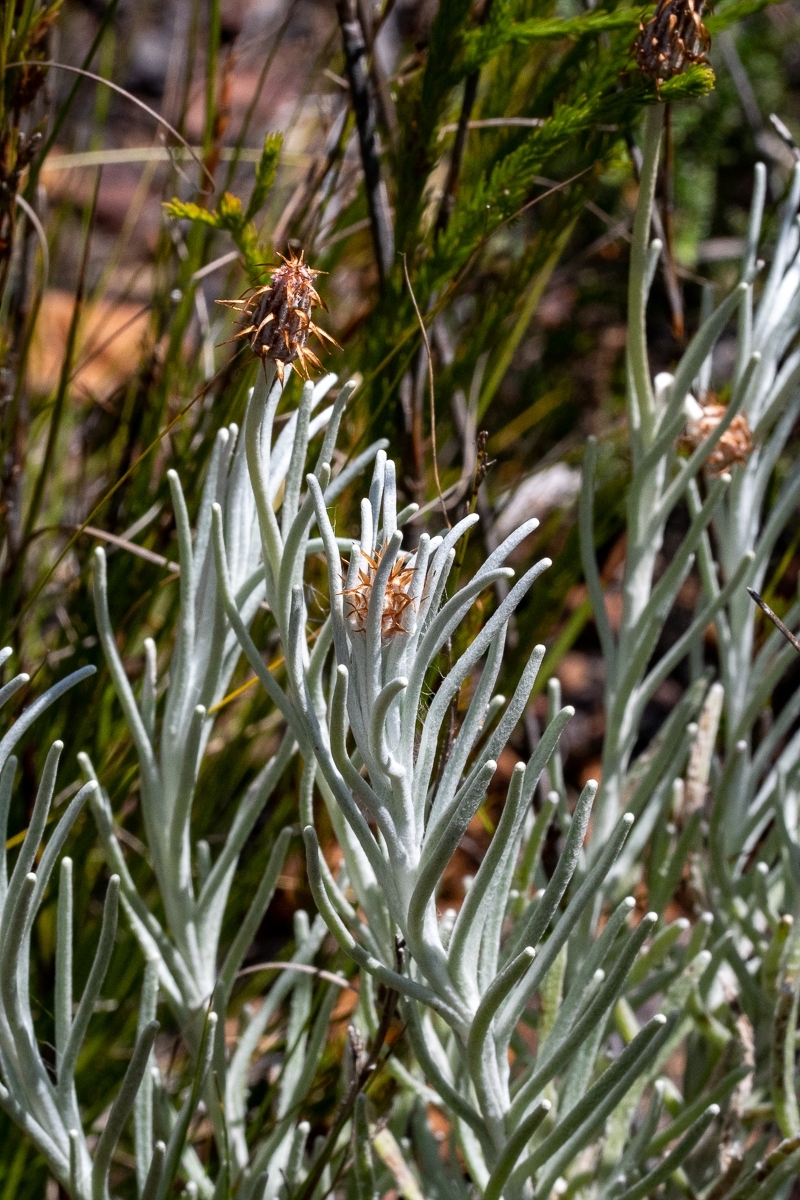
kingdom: Plantae
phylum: Tracheophyta
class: Magnoliopsida
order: Asterales
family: Asteraceae
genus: Syncarpha
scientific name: Syncarpha gnaphaloides
